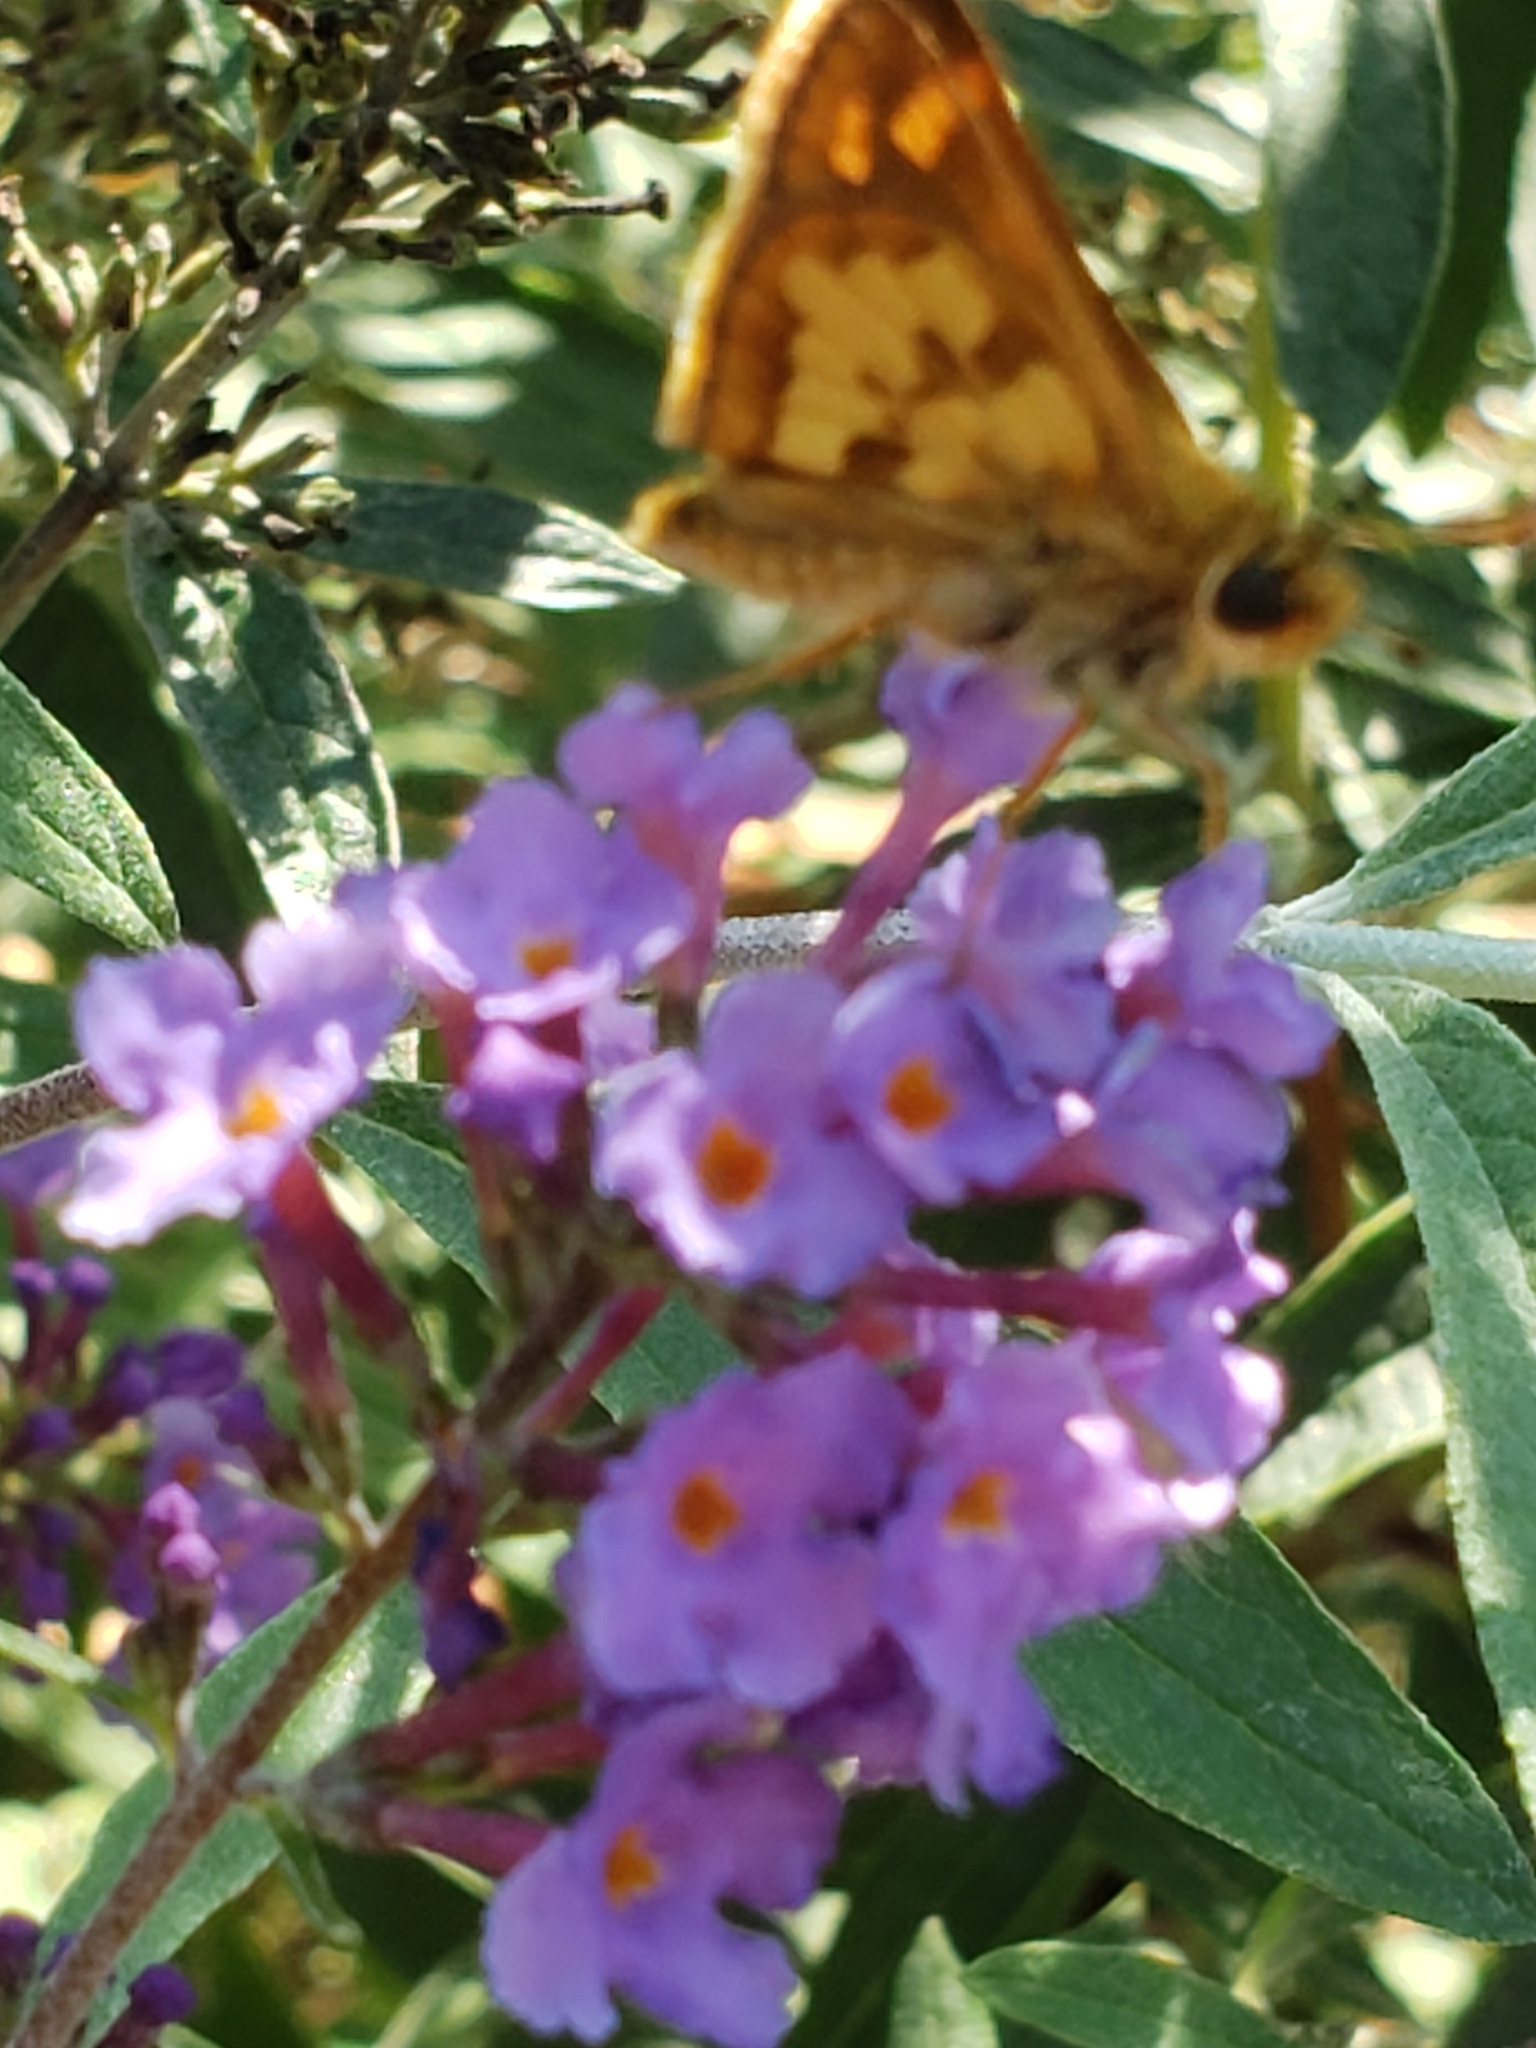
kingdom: Animalia
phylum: Arthropoda
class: Insecta
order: Lepidoptera
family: Hesperiidae
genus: Polites
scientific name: Polites coras
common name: Peck's skipper
